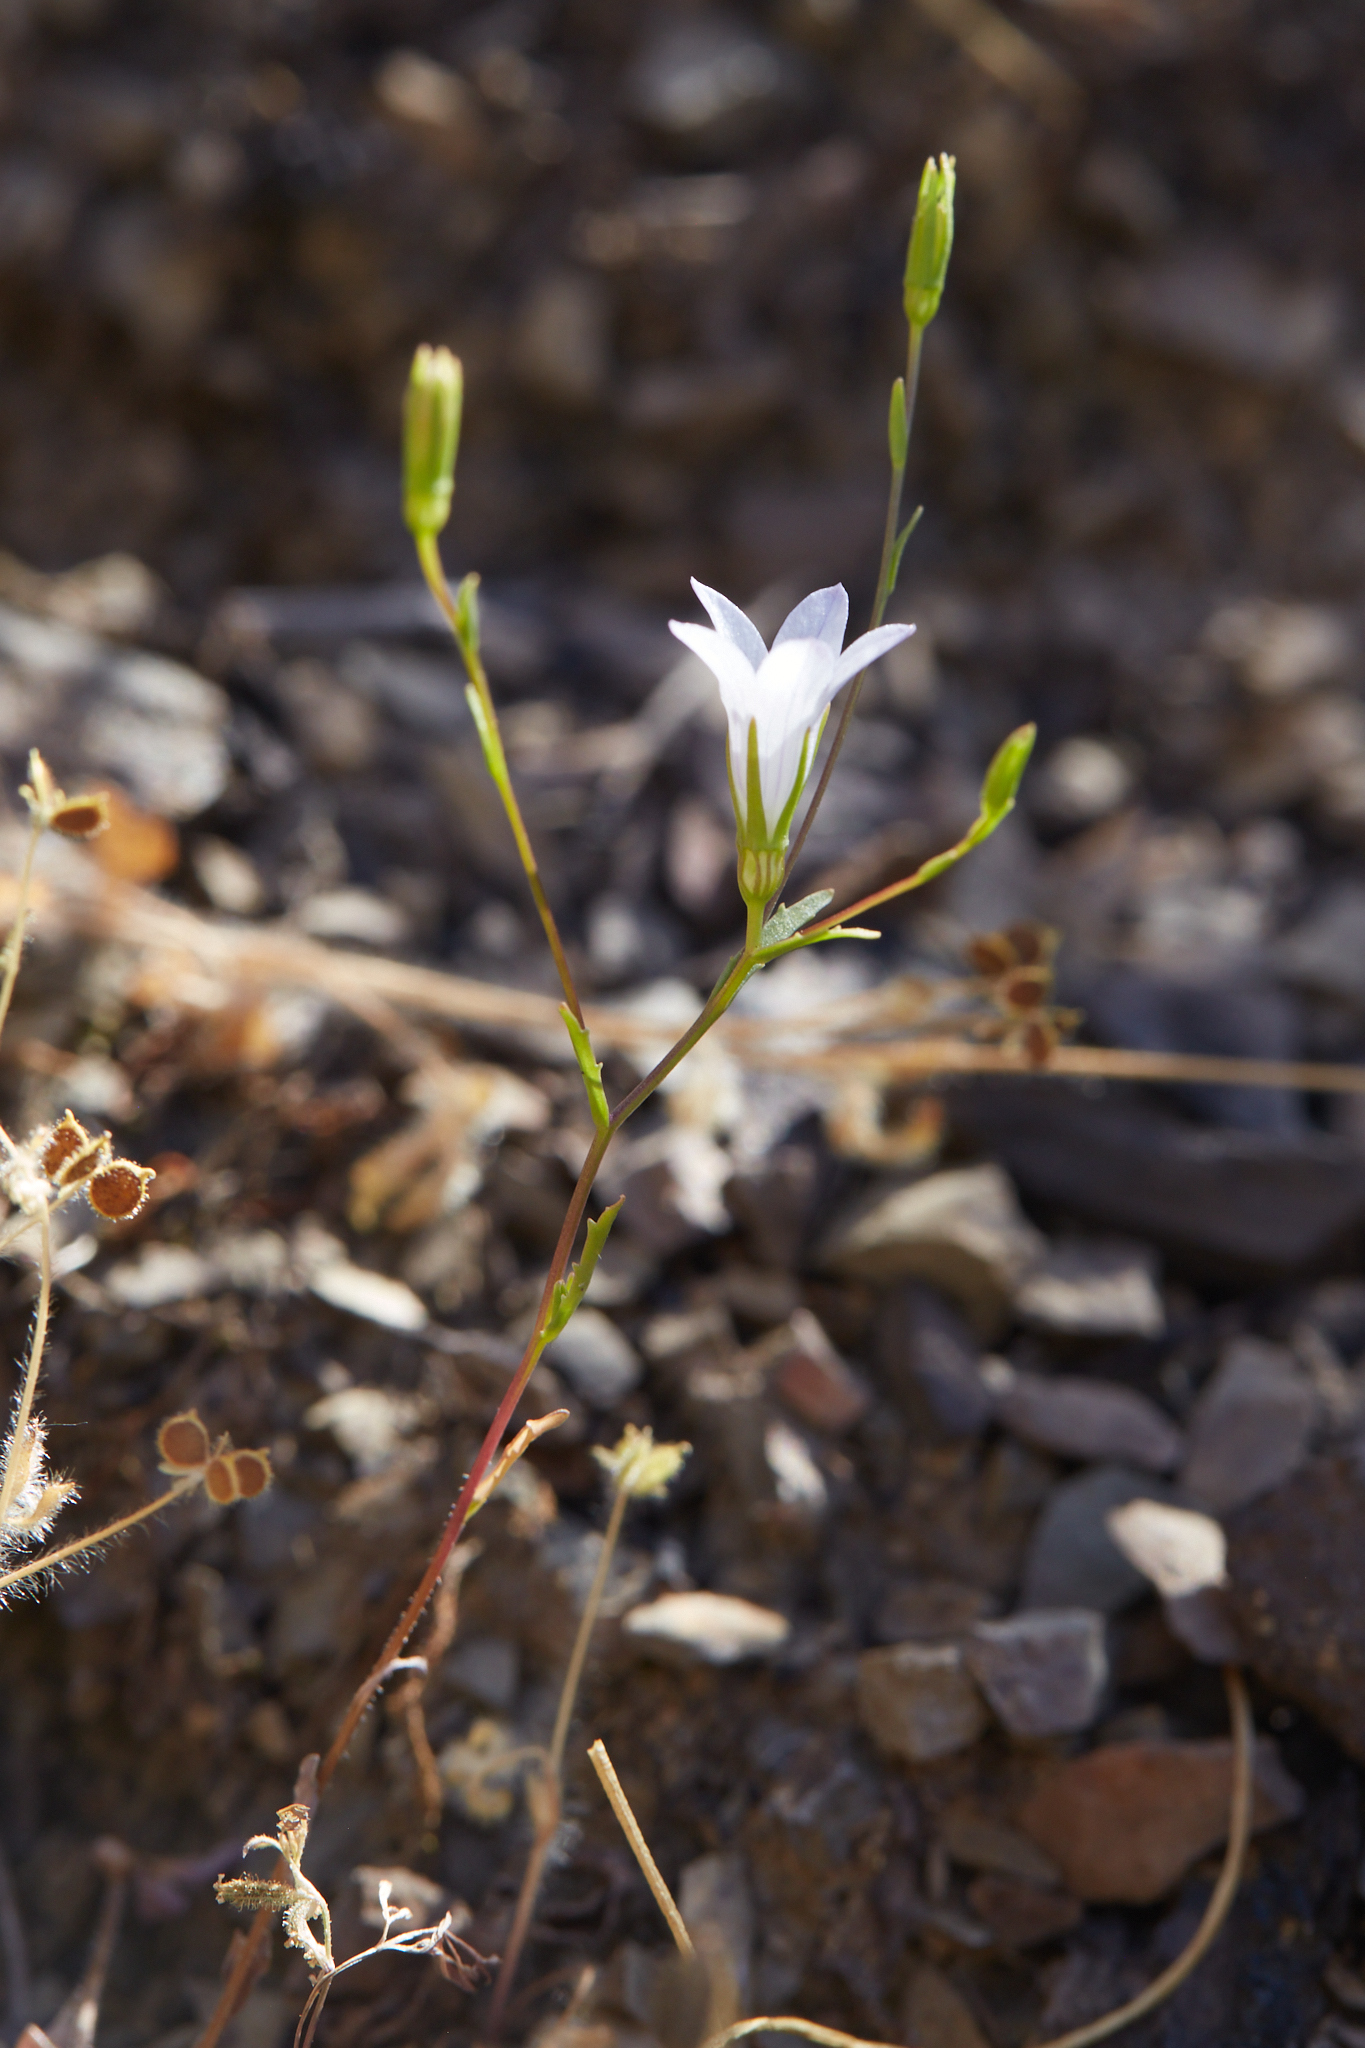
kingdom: Plantae
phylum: Tracheophyta
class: Magnoliopsida
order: Asterales
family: Campanulaceae
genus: Ravenella
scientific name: Ravenella exigua
